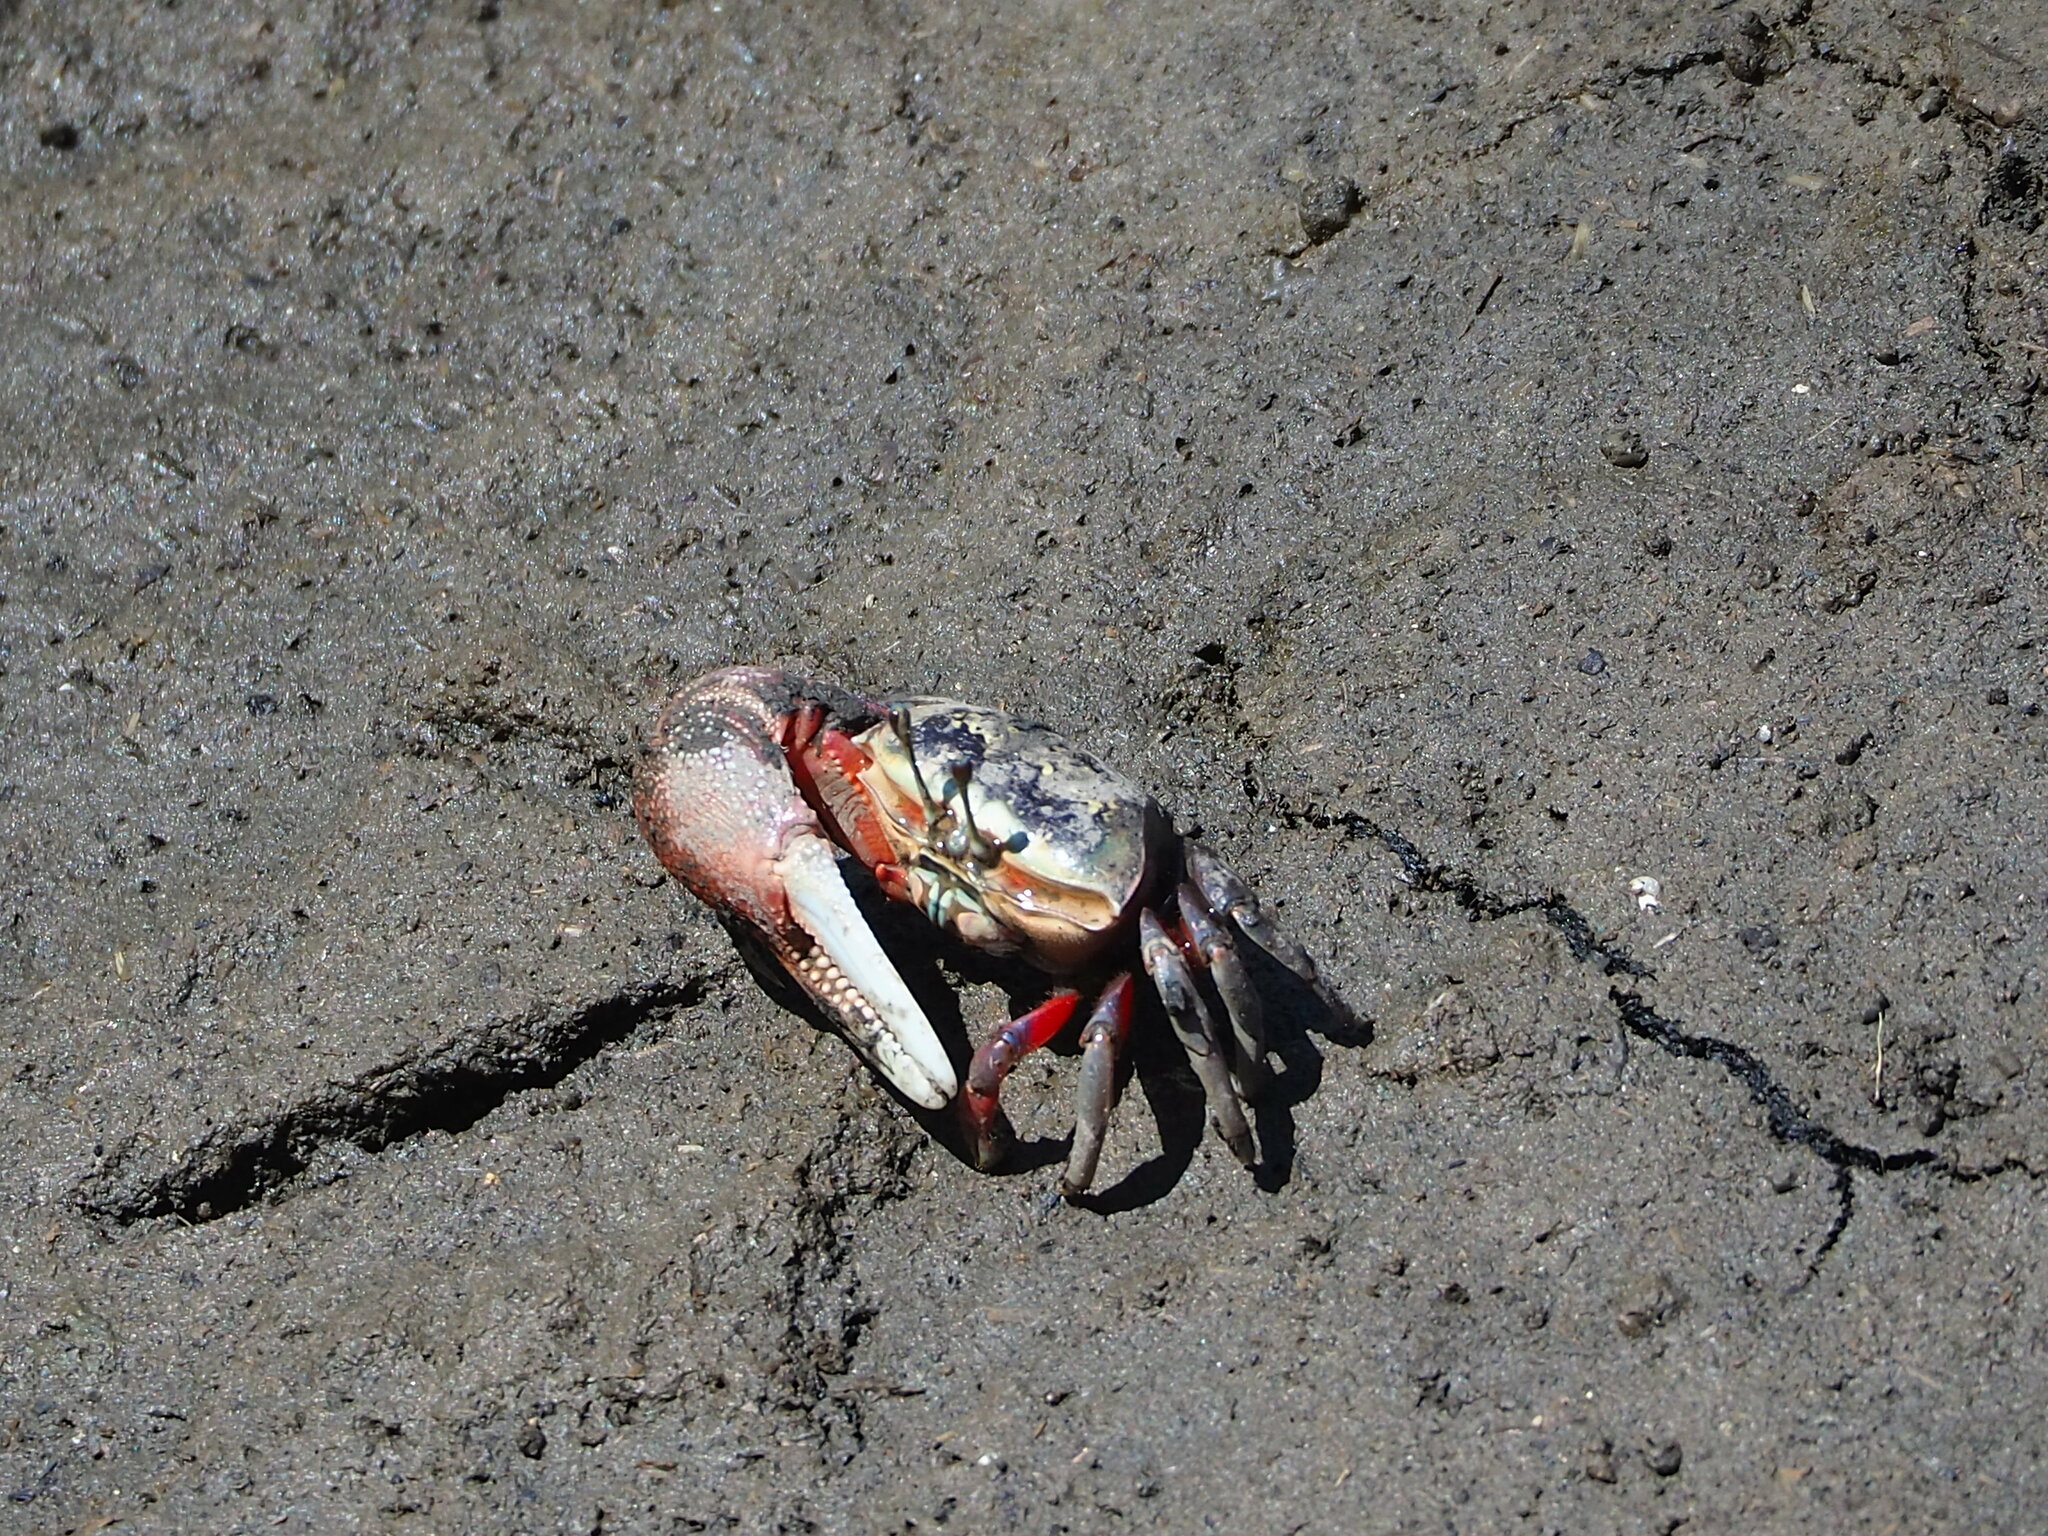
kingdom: Animalia
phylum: Arthropoda
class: Malacostraca
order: Decapoda
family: Ocypodidae
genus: Tubuca
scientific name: Tubuca arcuata
